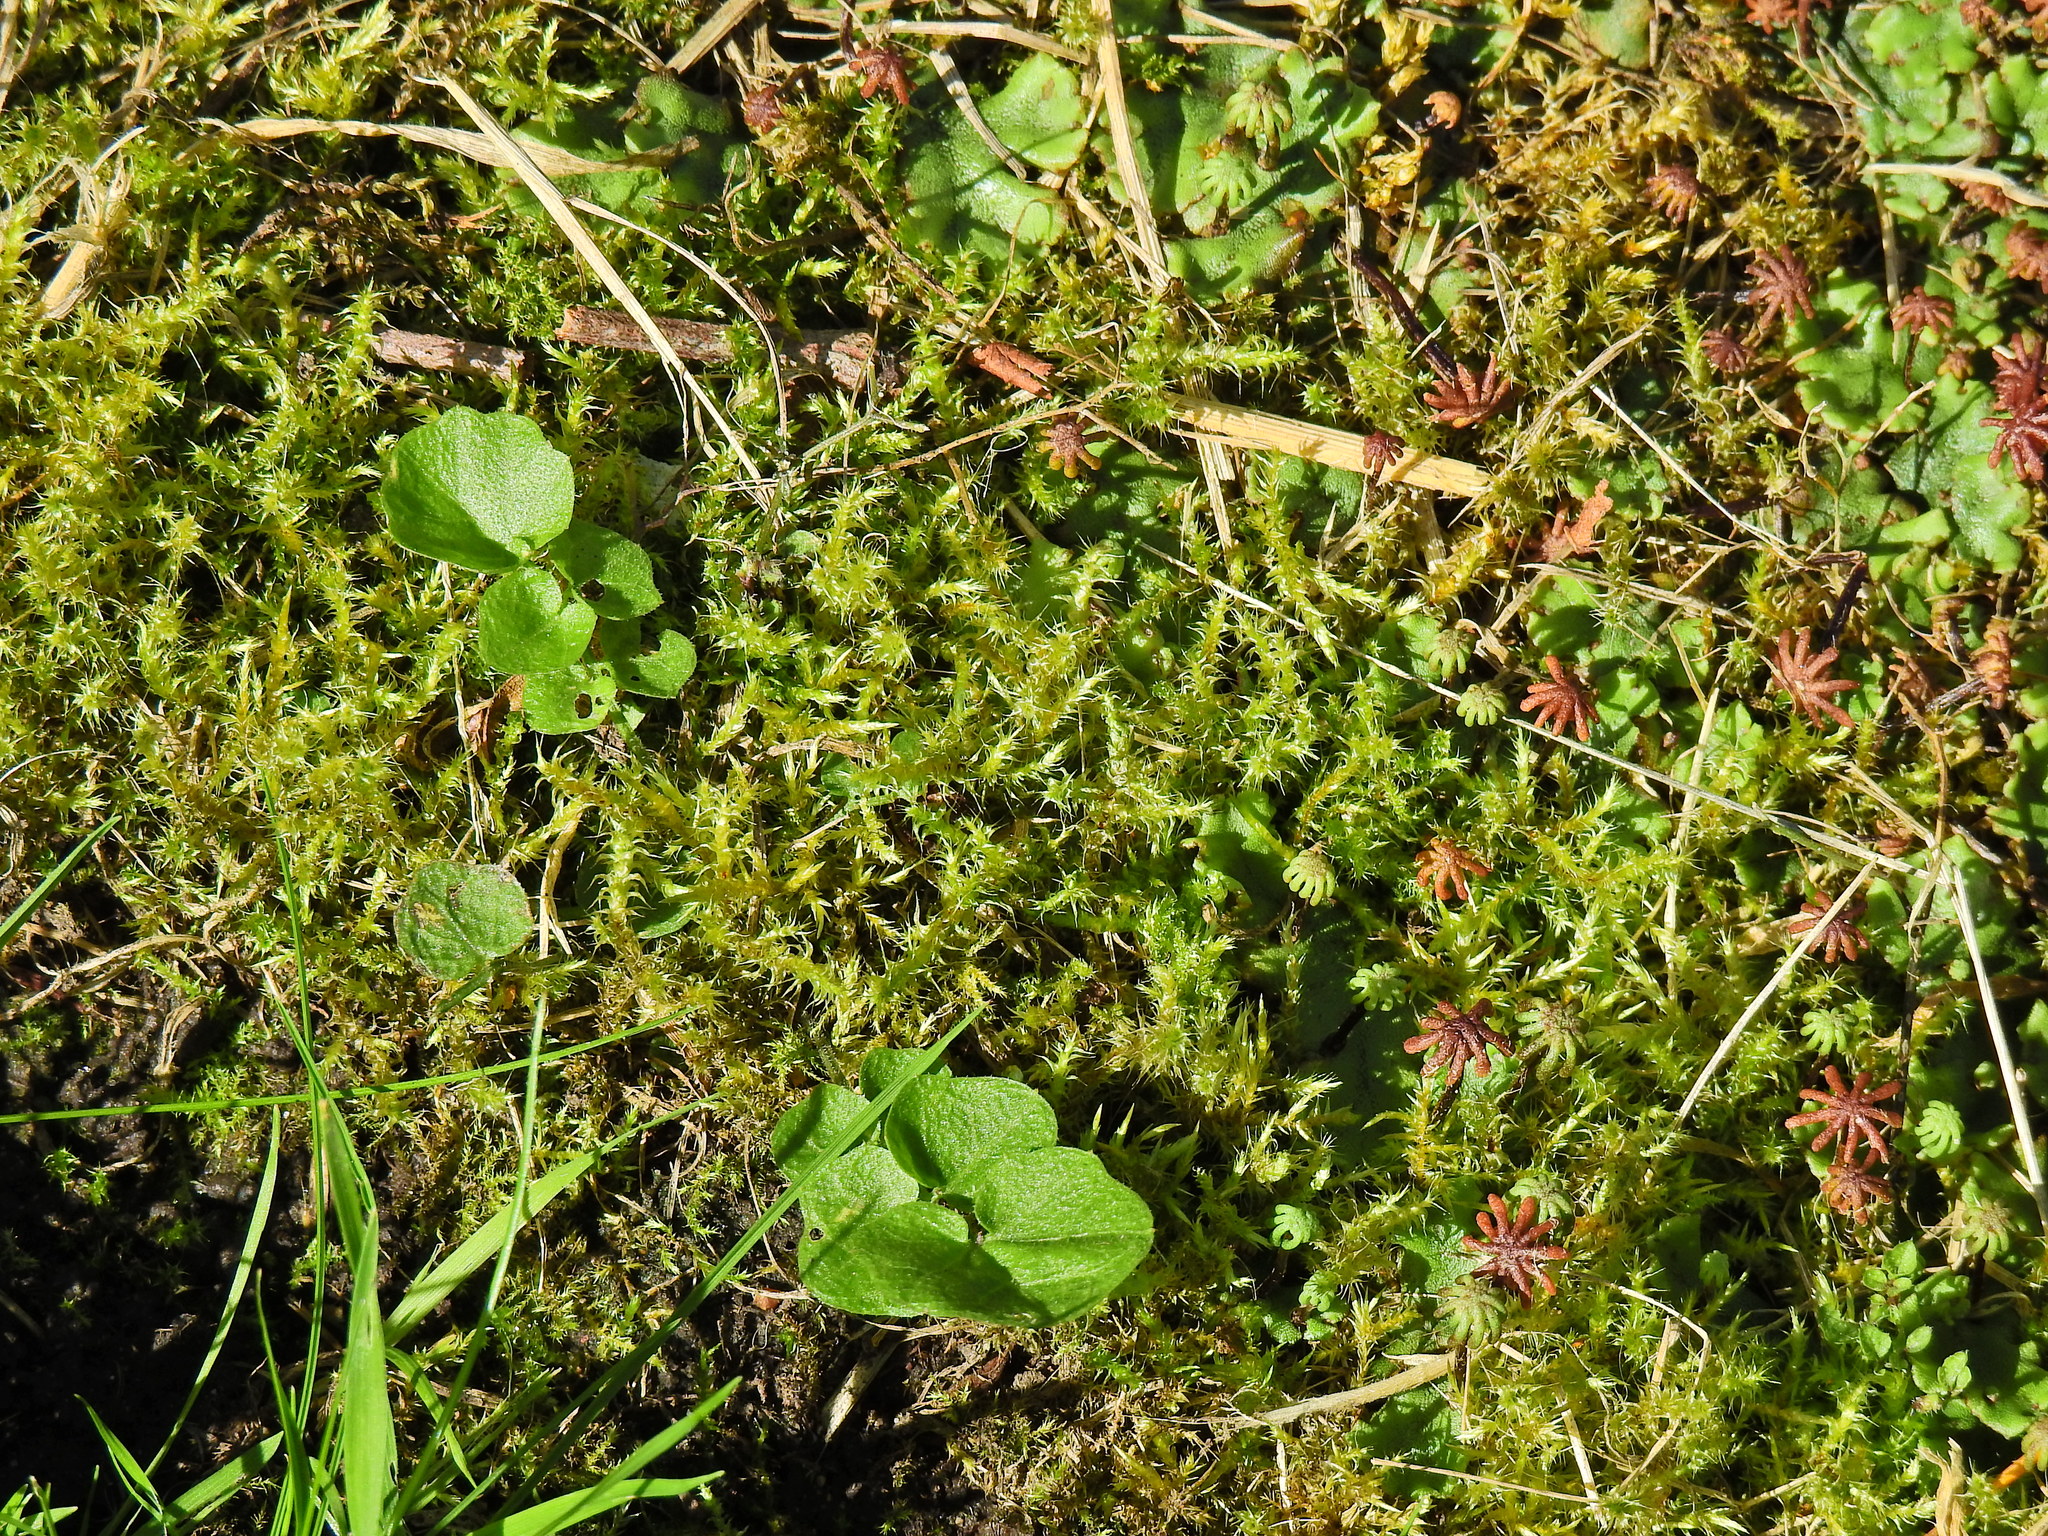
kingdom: Plantae
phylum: Bryophyta
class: Bryopsida
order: Hypnales
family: Hylocomiaceae
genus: Rhytidiadelphus
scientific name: Rhytidiadelphus squarrosus
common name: Springy turf-moss
